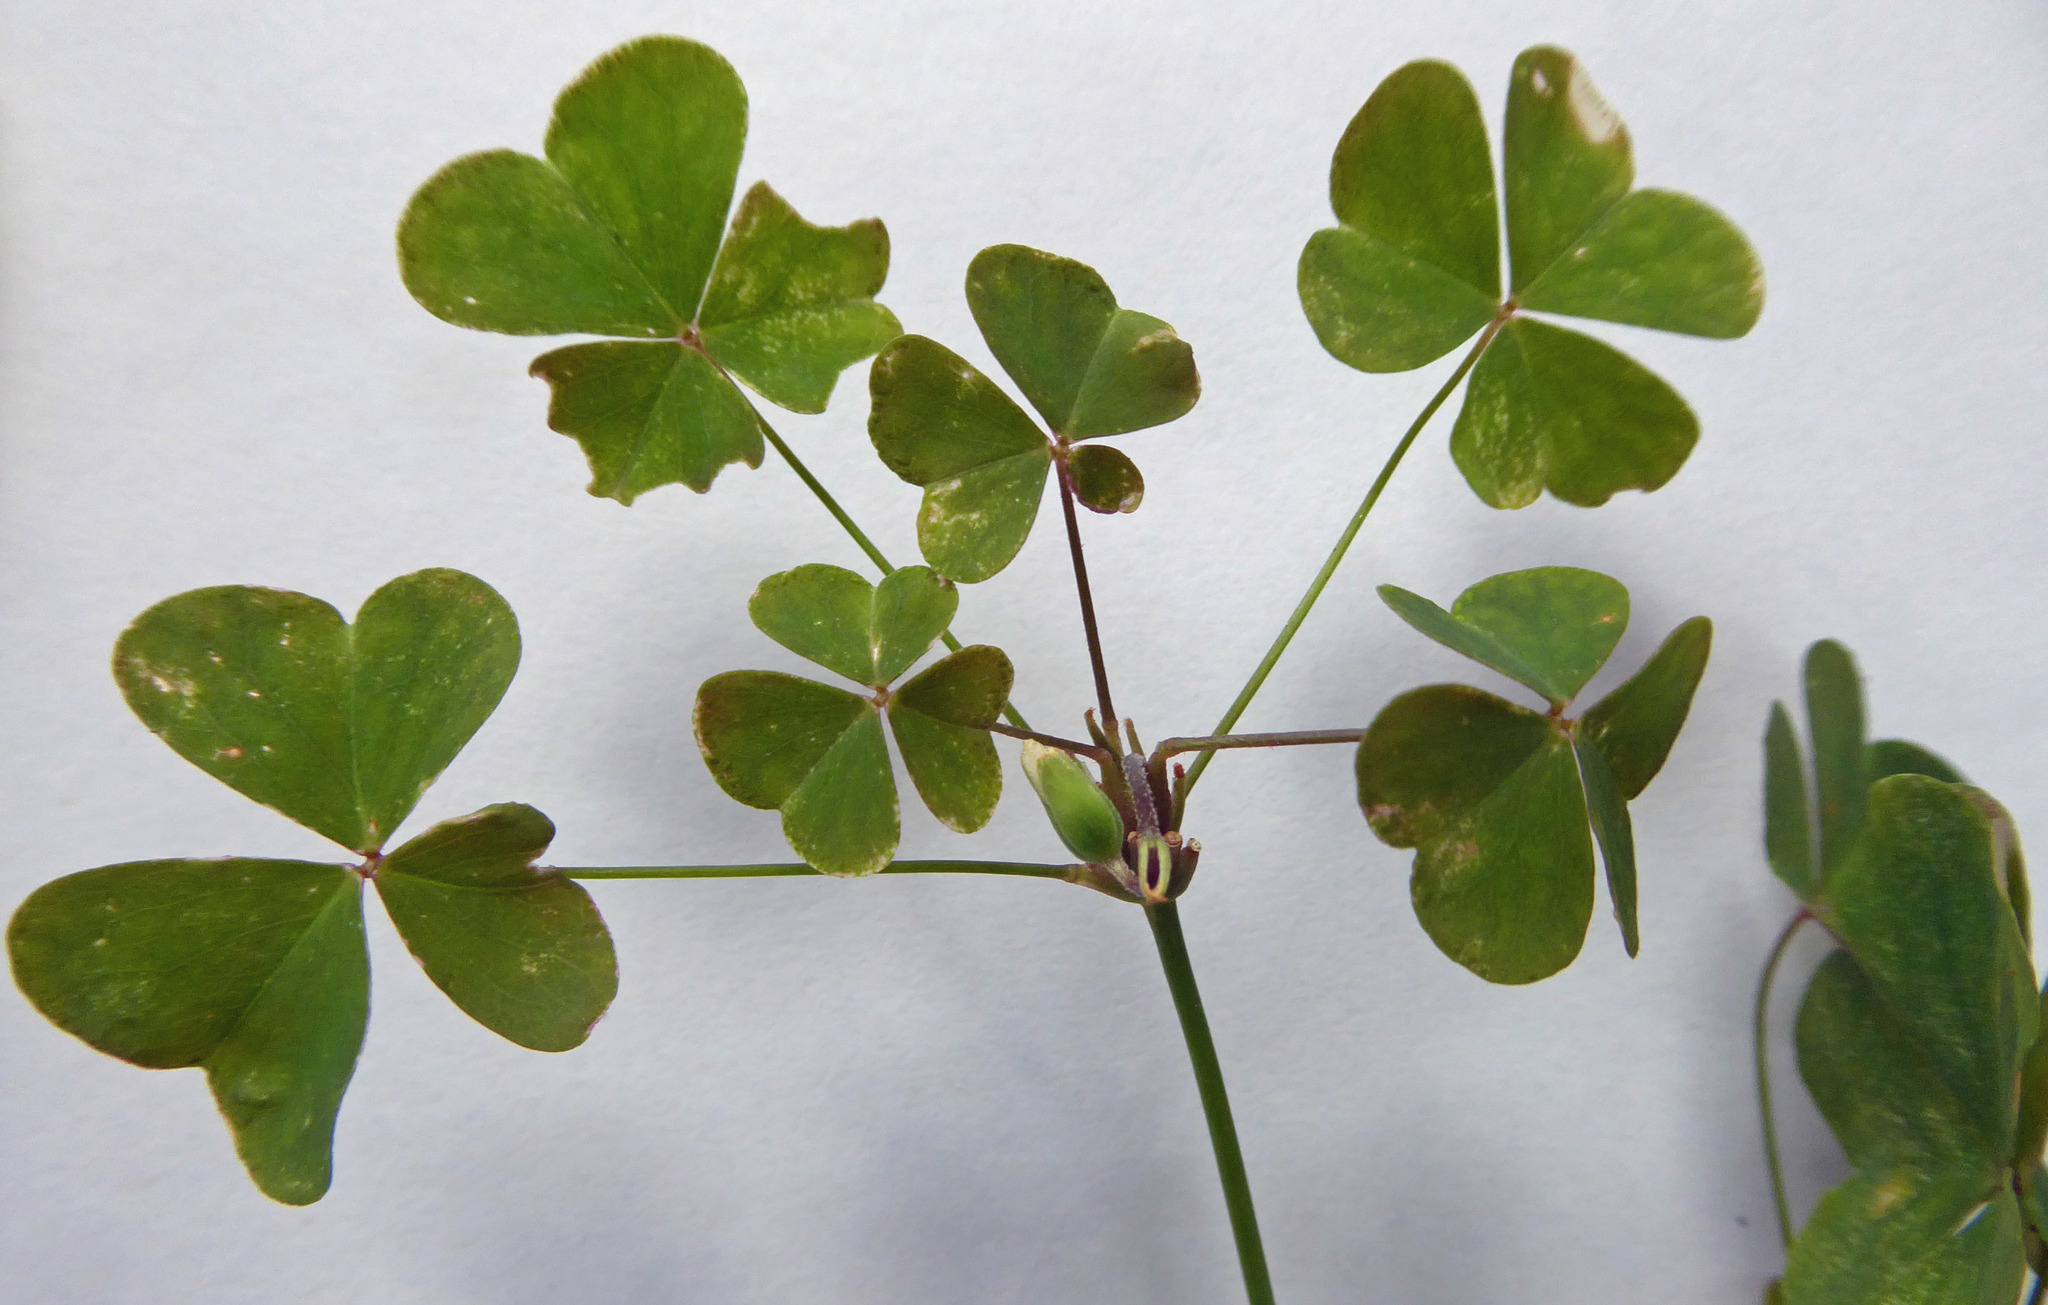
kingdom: Fungi
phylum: Basidiomycota
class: Pucciniomycetes
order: Pucciniales
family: Pucciniaceae
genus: Puccinia
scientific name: Puccinia oxalidis
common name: Oxalis rust
